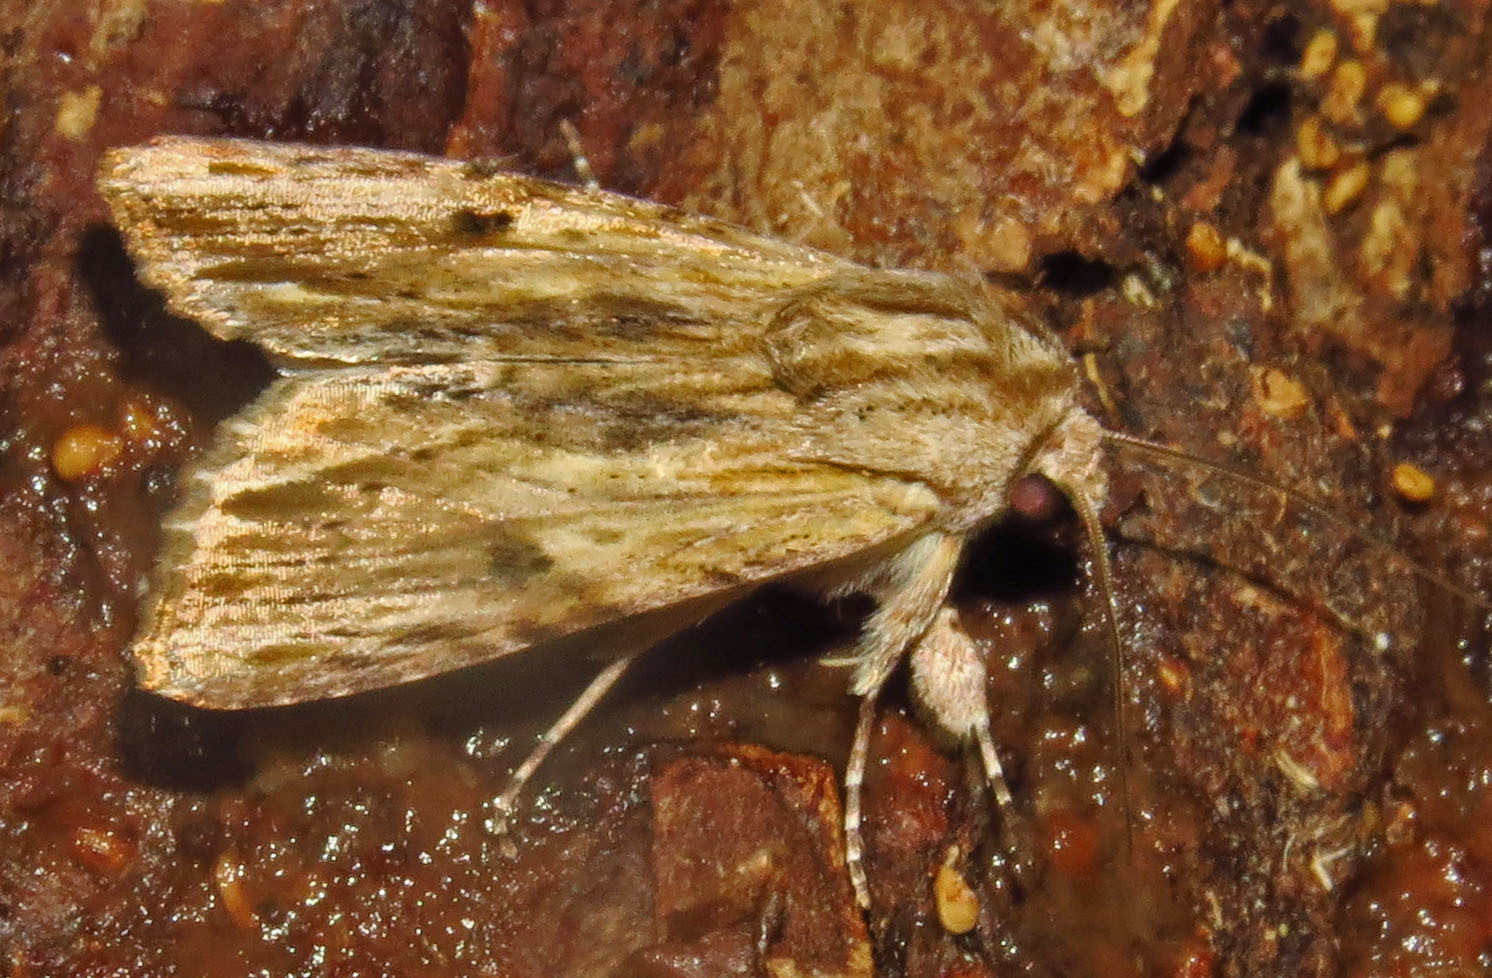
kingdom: Animalia
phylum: Arthropoda
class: Insecta
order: Lepidoptera
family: Noctuidae
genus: Spodoptera
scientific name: Spodoptera eridania
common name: Southern army worm
